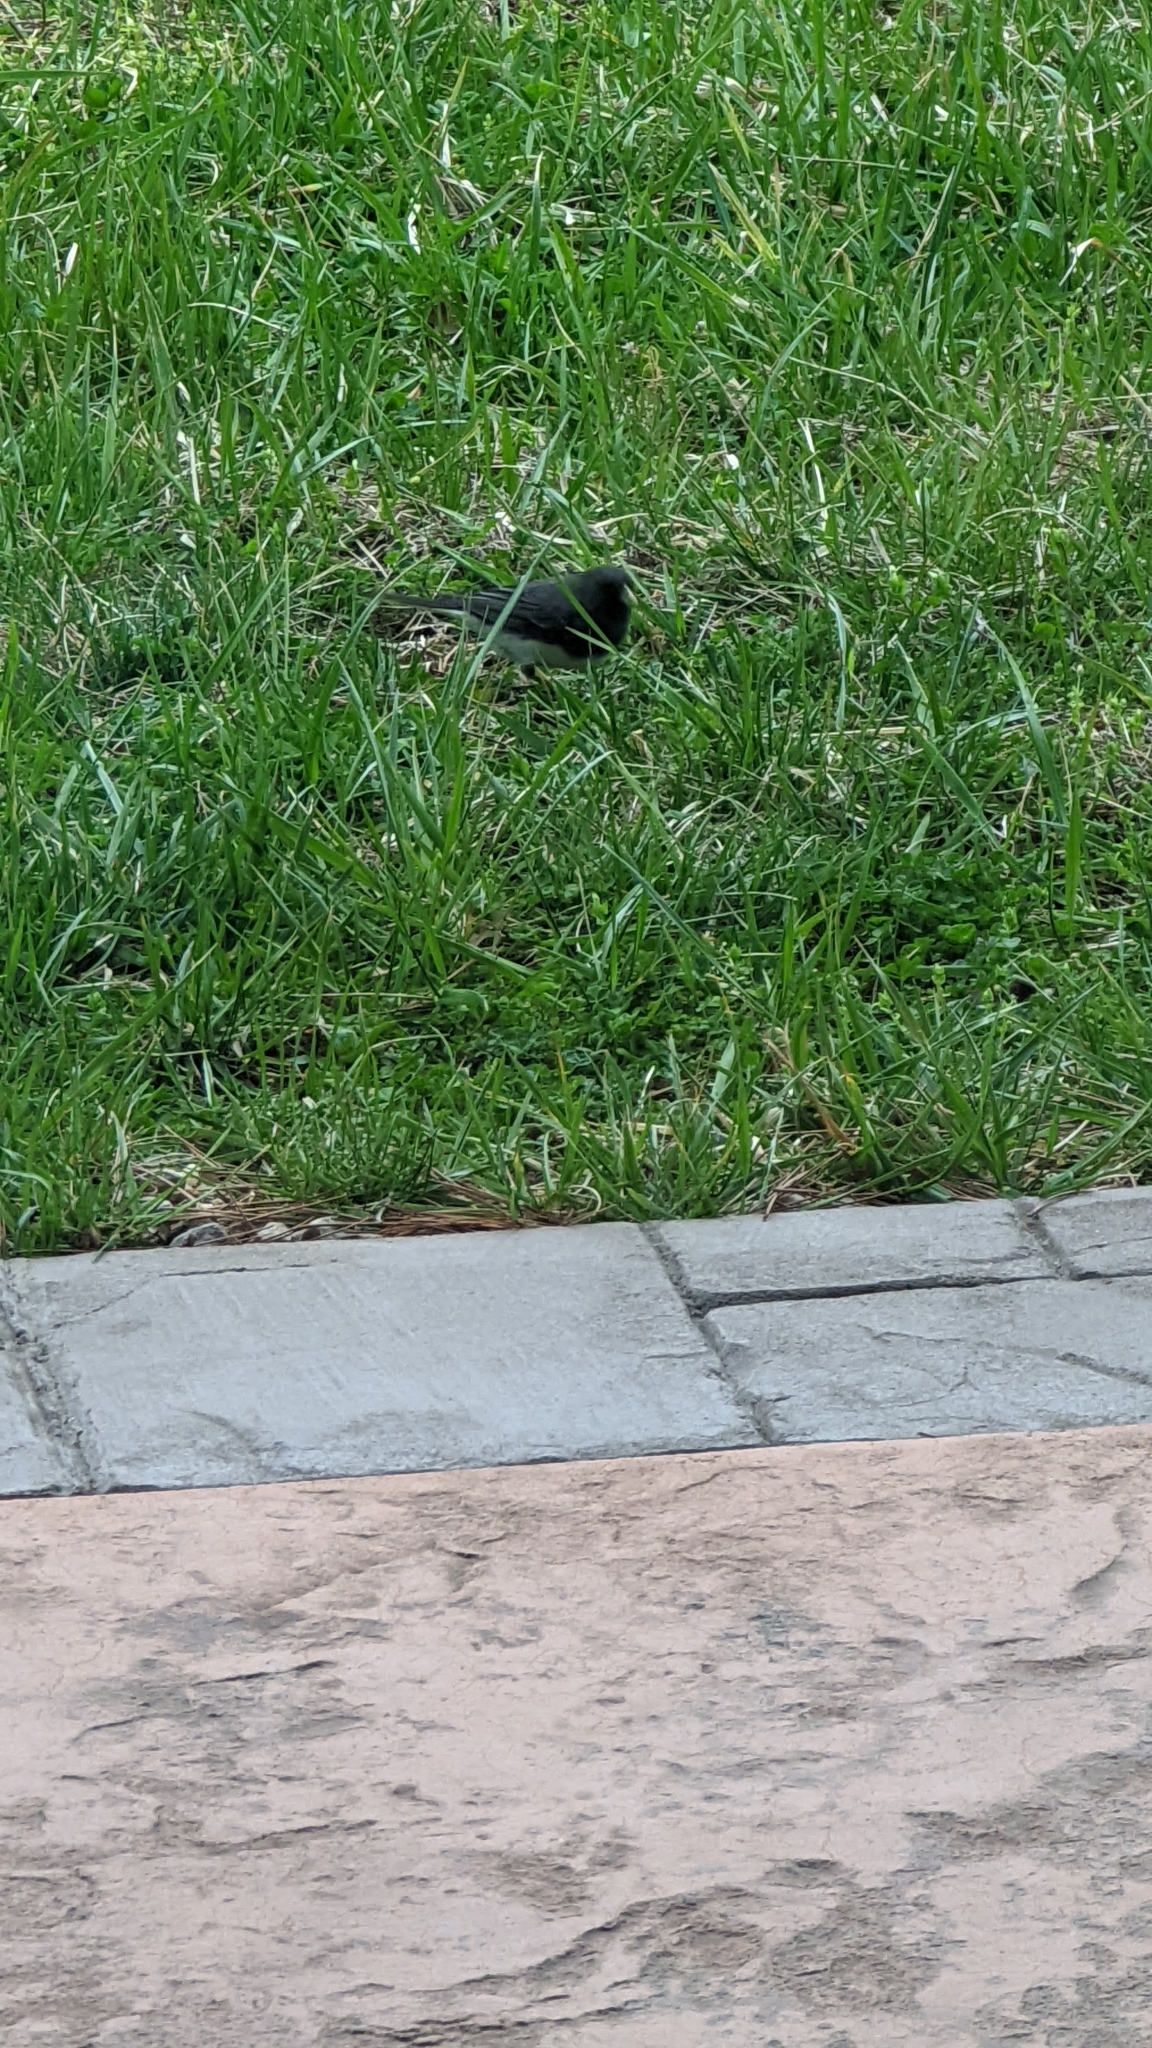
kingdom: Animalia
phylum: Chordata
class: Aves
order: Passeriformes
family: Passerellidae
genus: Junco
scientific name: Junco hyemalis
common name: Dark-eyed junco
